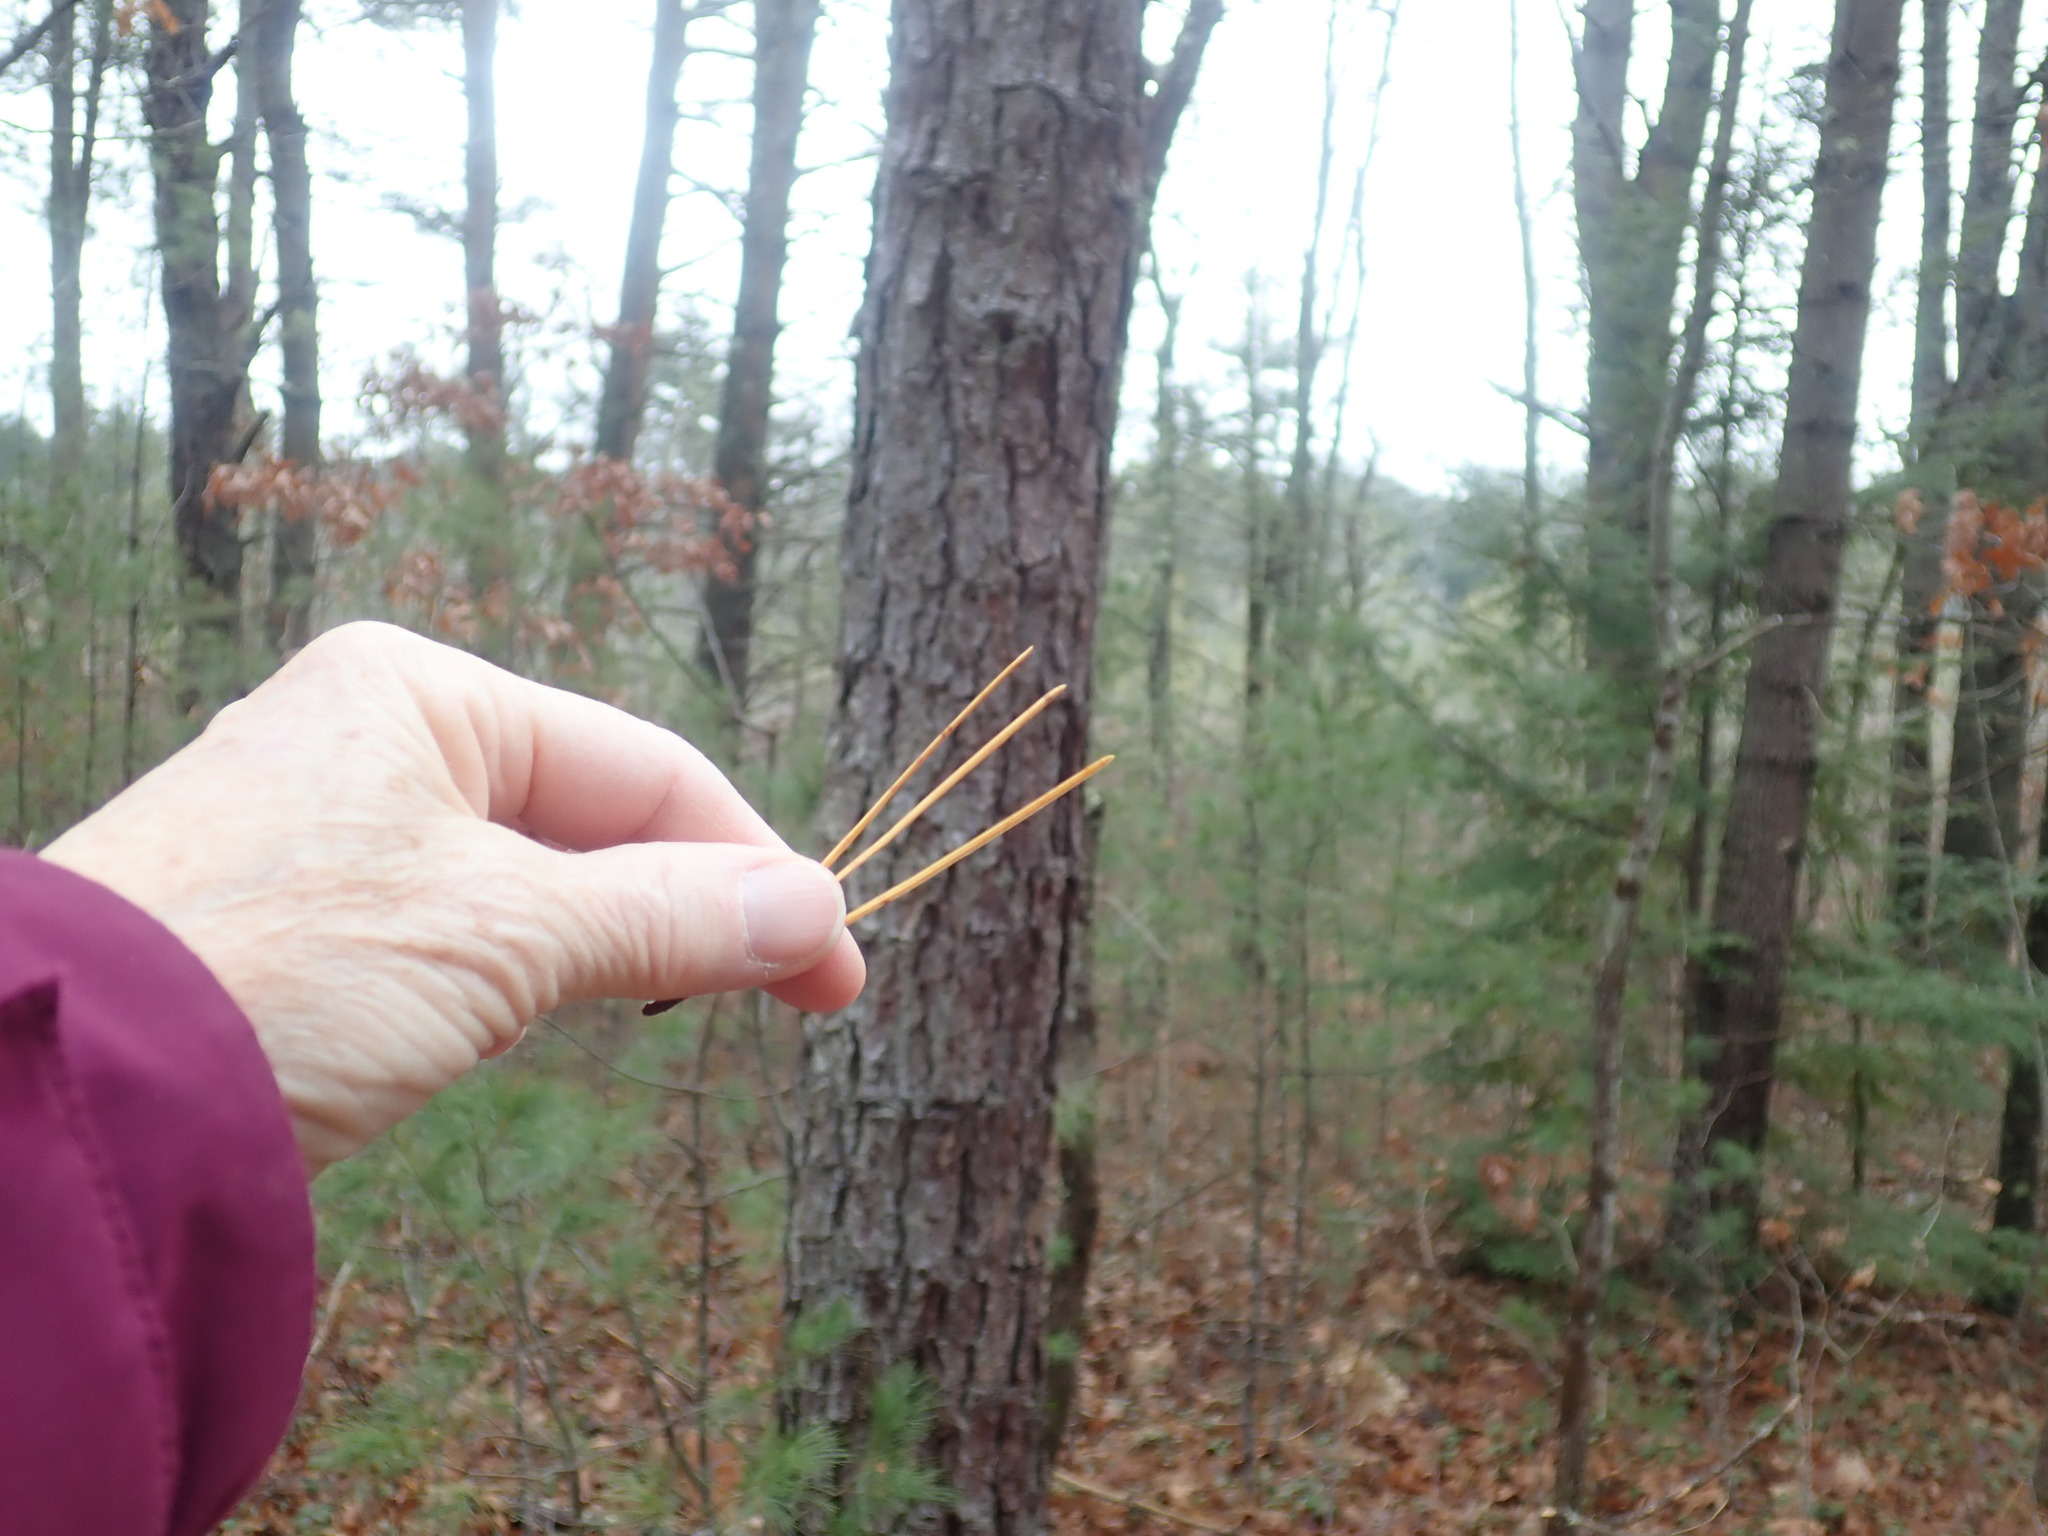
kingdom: Plantae
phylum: Tracheophyta
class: Pinopsida
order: Pinales
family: Pinaceae
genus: Pinus
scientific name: Pinus rigida
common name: Pitch pine
